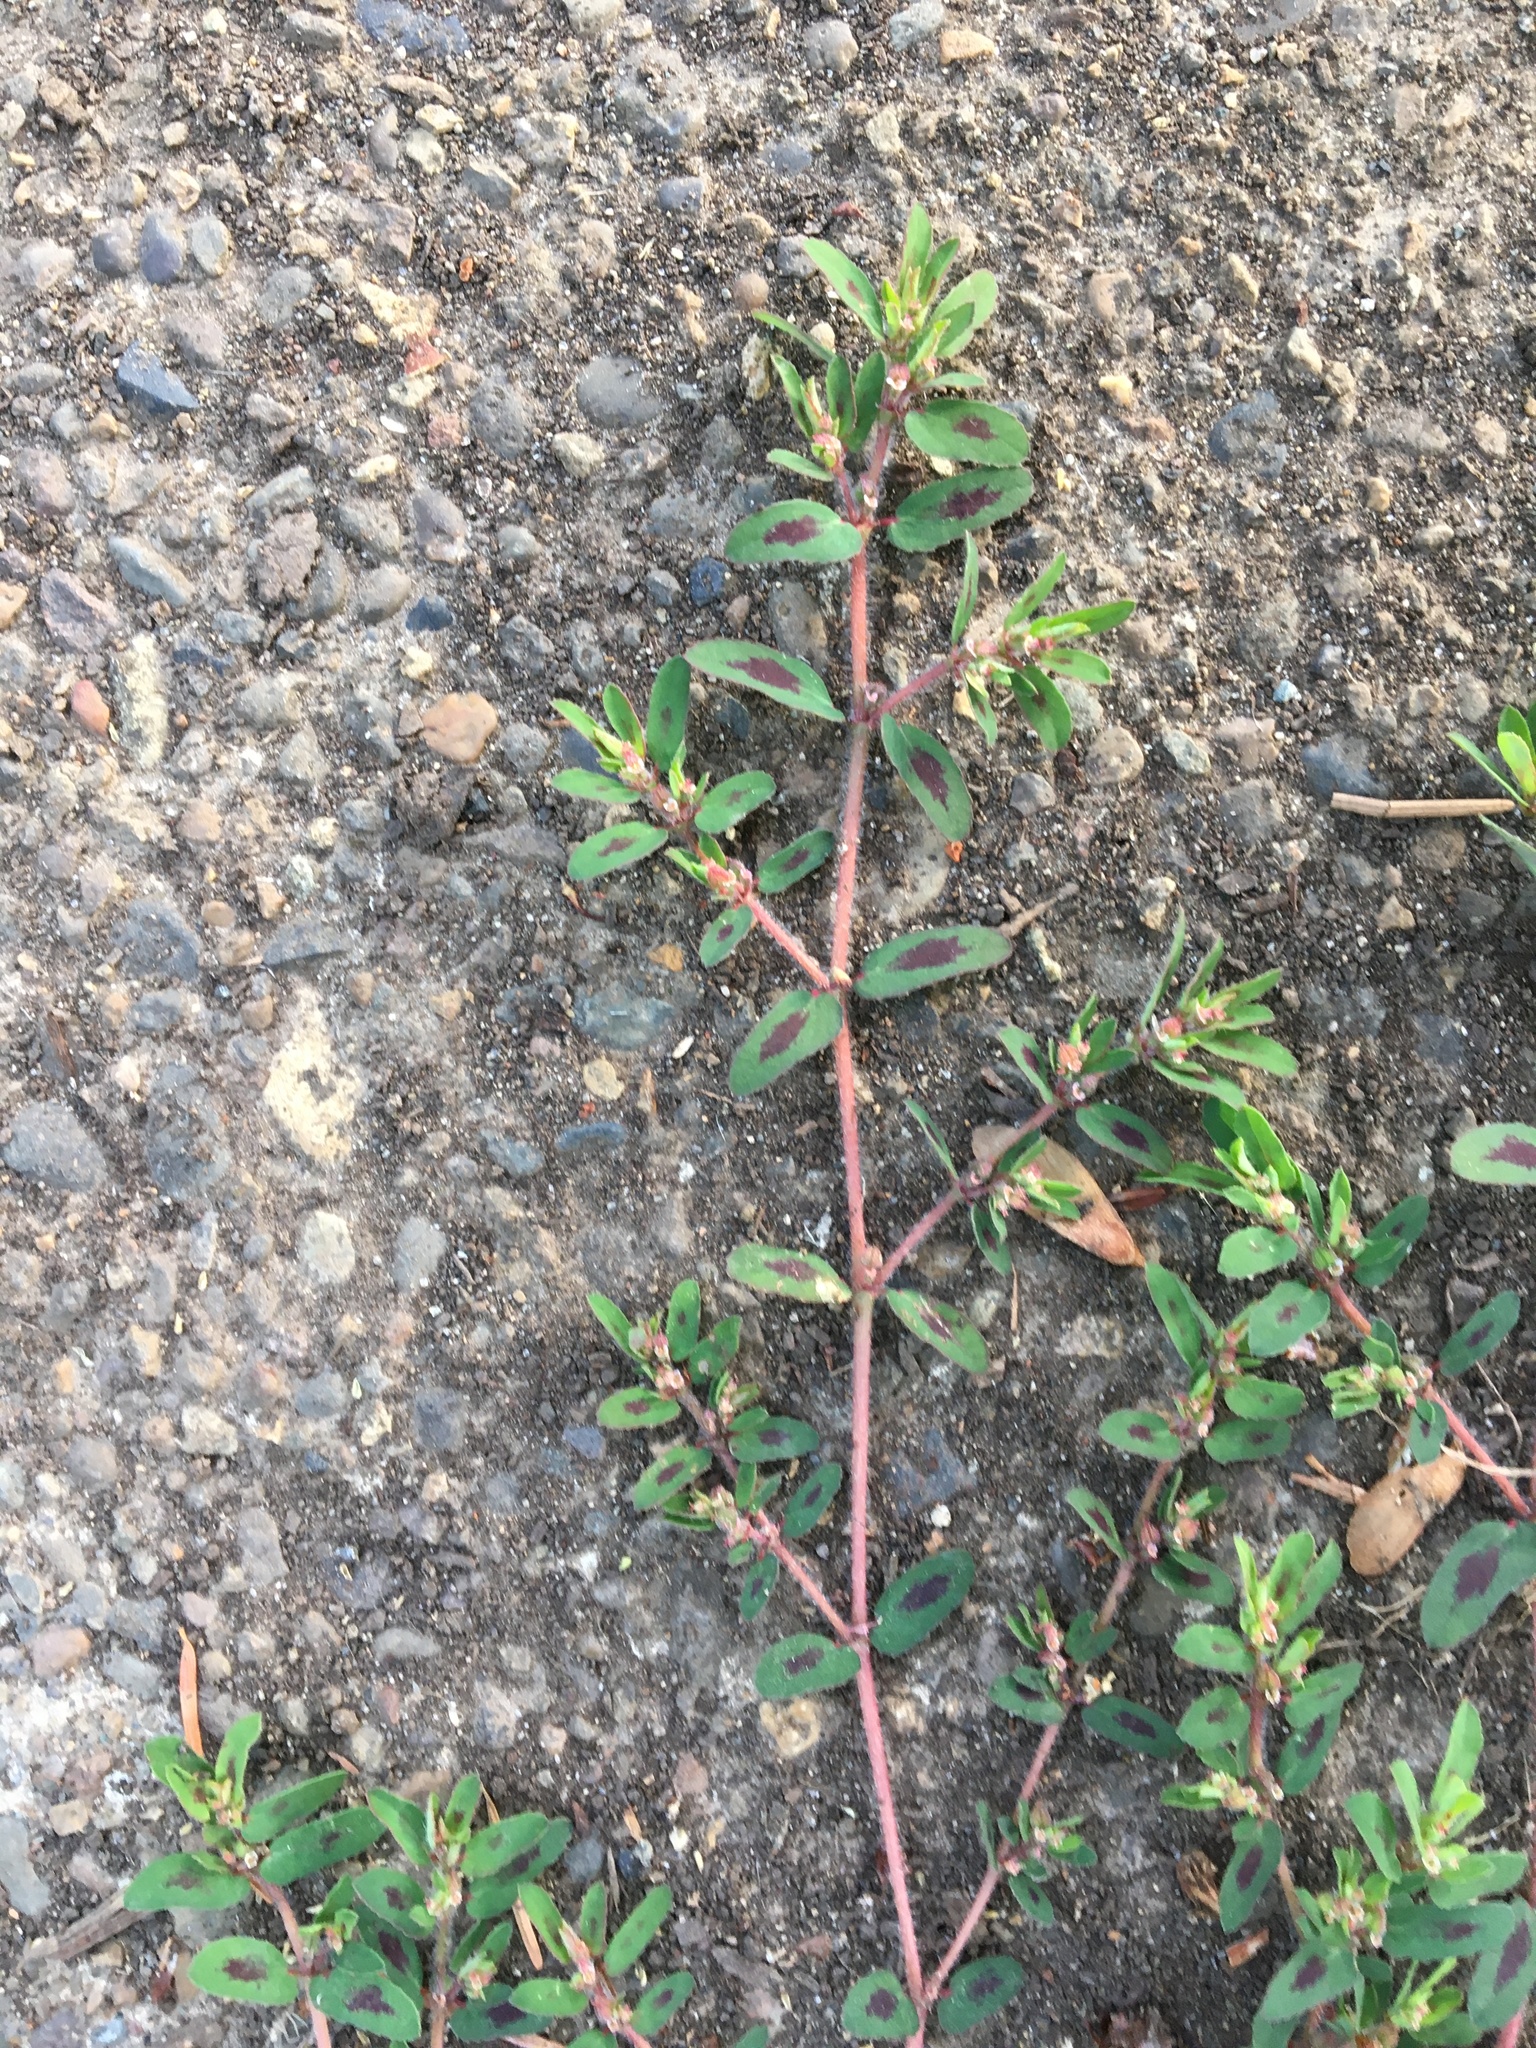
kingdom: Plantae
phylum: Tracheophyta
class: Magnoliopsida
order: Malpighiales
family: Euphorbiaceae
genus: Euphorbia
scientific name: Euphorbia maculata
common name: Spotted spurge
